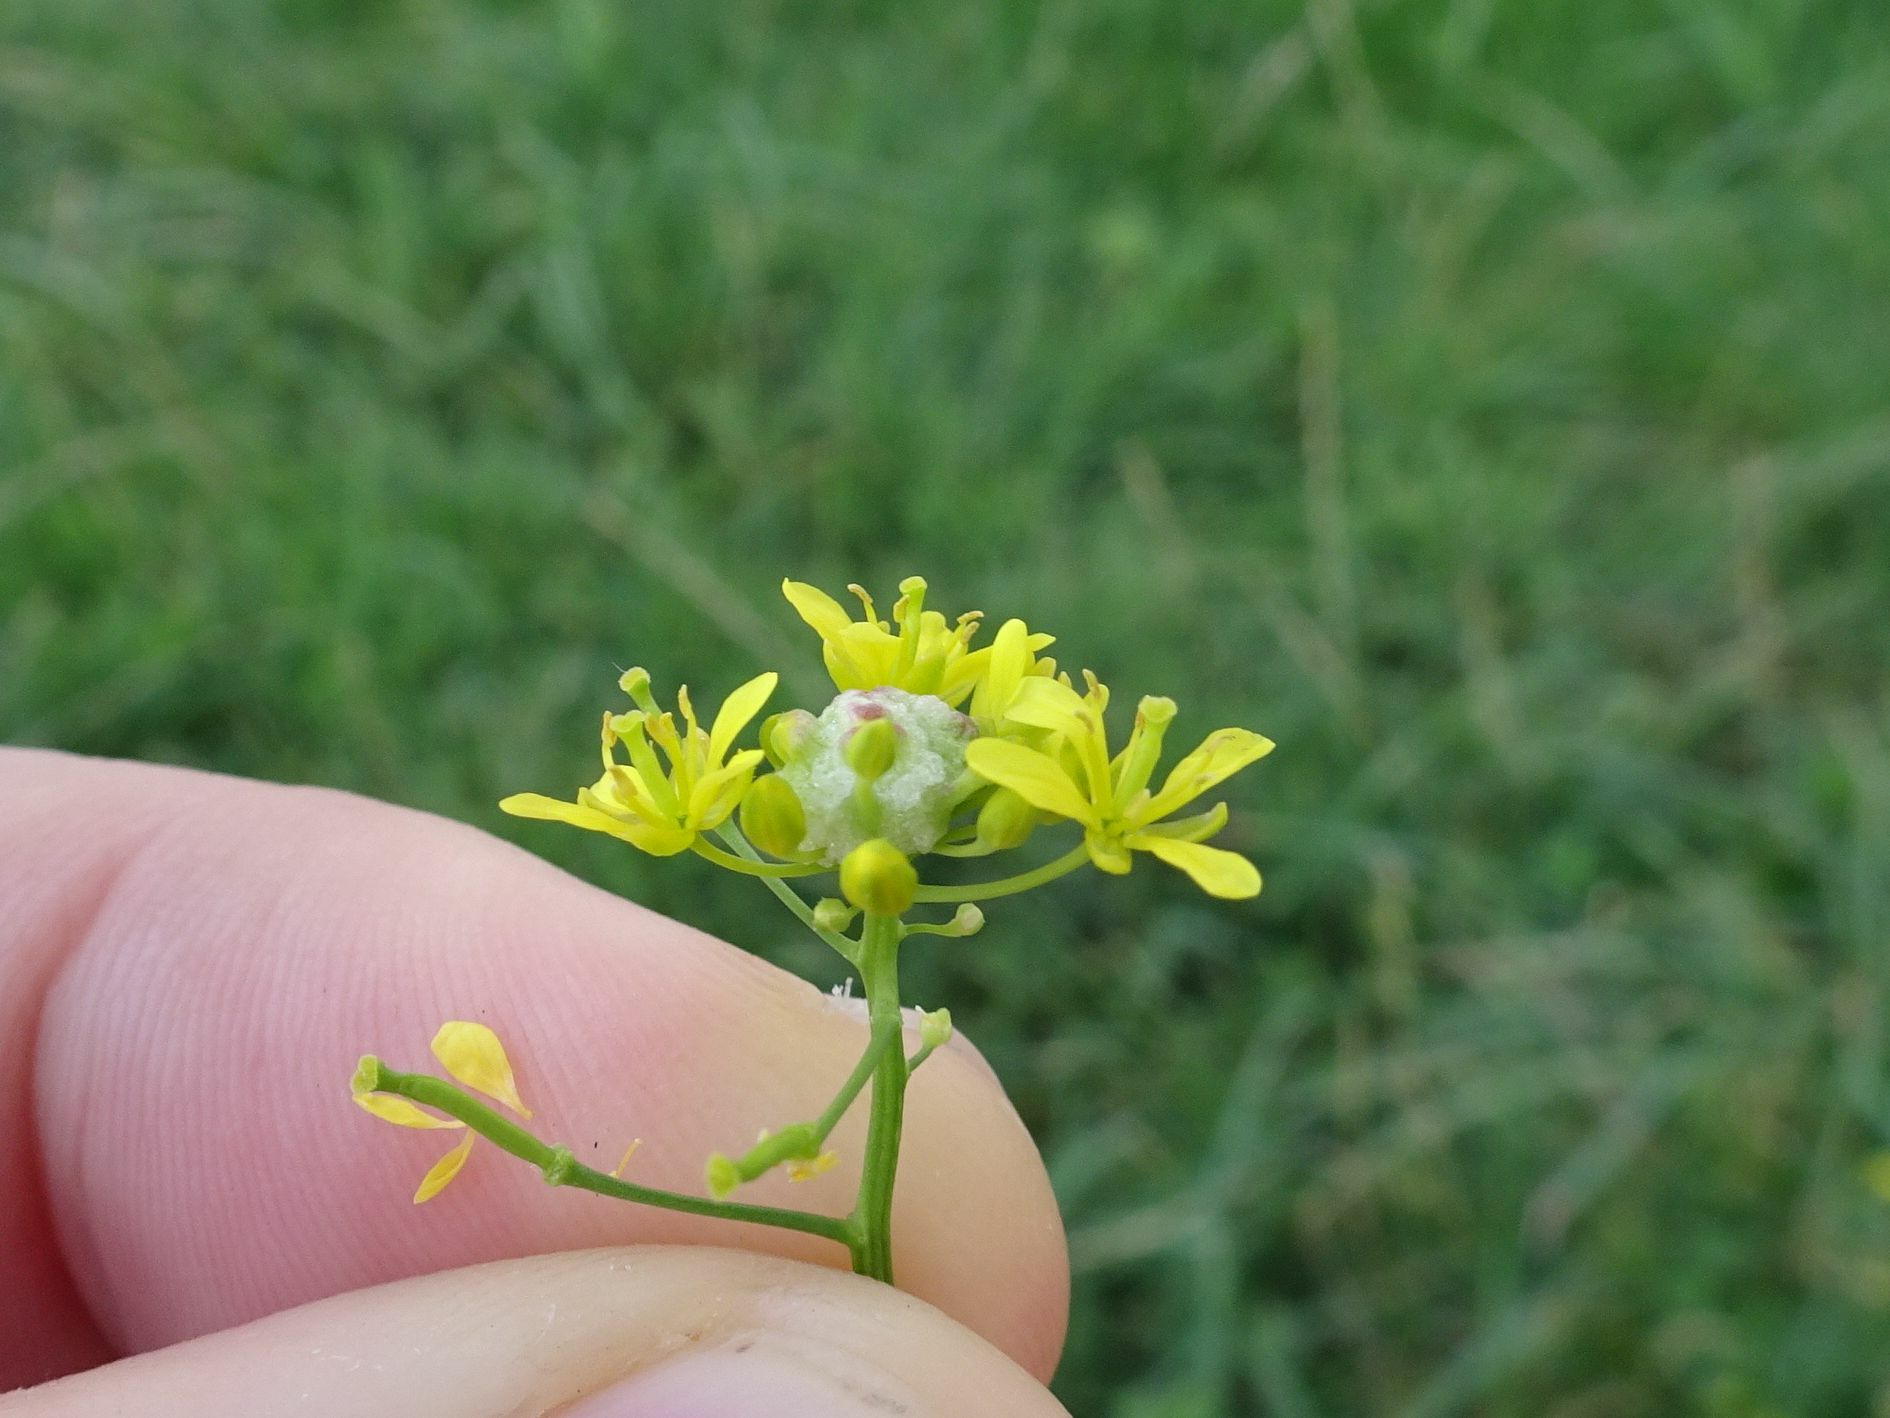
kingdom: Animalia
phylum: Arthropoda
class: Insecta
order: Diptera
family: Cecidomyiidae
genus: Dasineura
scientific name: Dasineura sisymbrii
